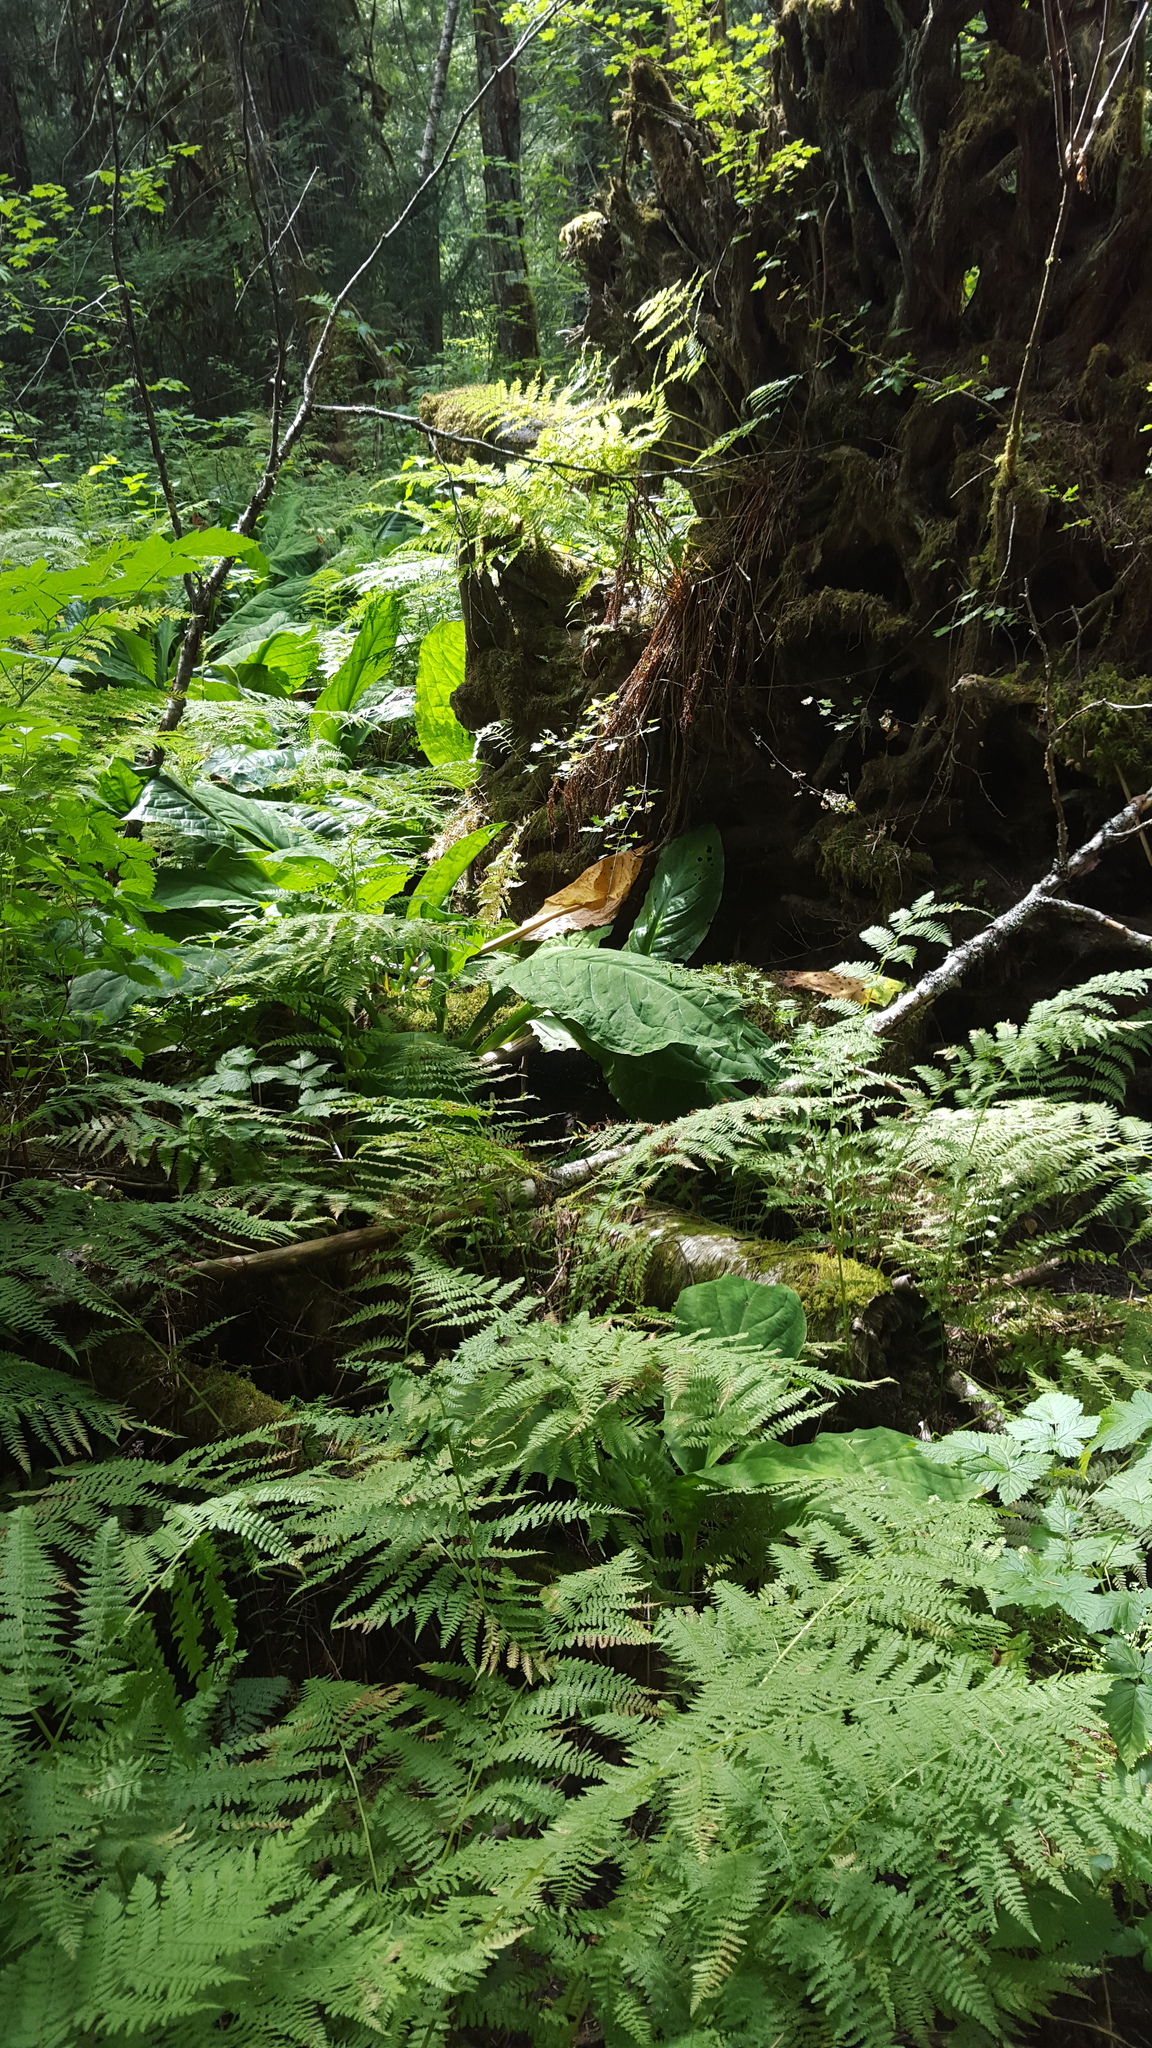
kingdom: Plantae
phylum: Tracheophyta
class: Liliopsida
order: Alismatales
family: Araceae
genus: Lysichiton
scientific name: Lysichiton americanus
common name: American skunk cabbage
